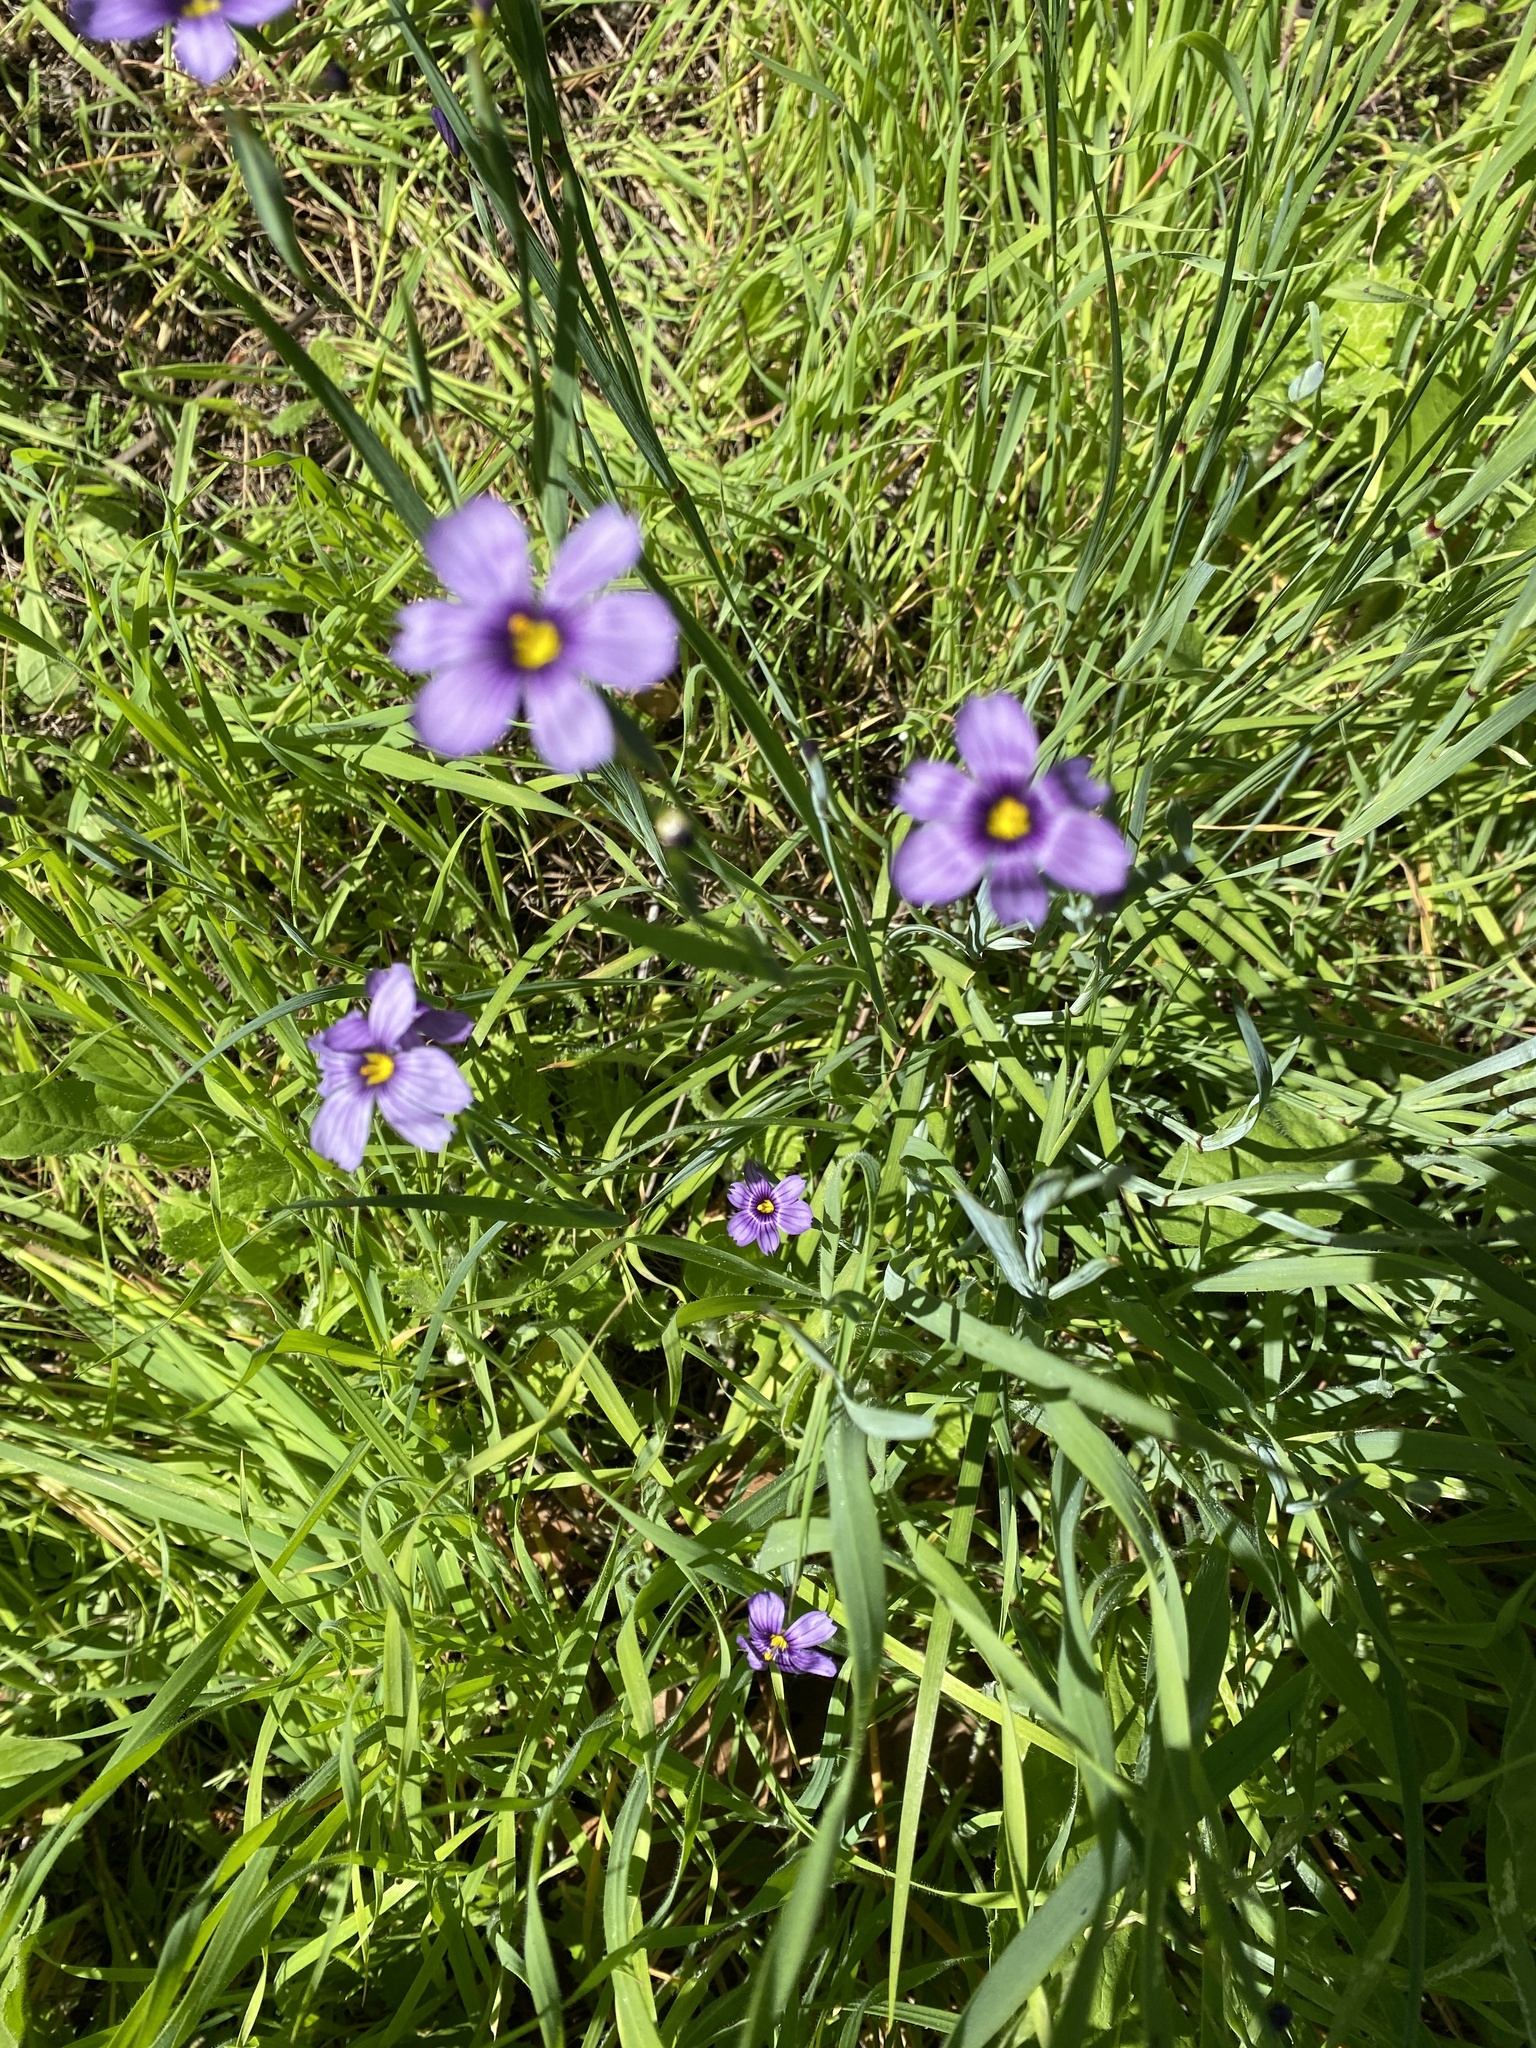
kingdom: Plantae
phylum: Tracheophyta
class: Liliopsida
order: Asparagales
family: Iridaceae
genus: Sisyrinchium
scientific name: Sisyrinchium bellum
